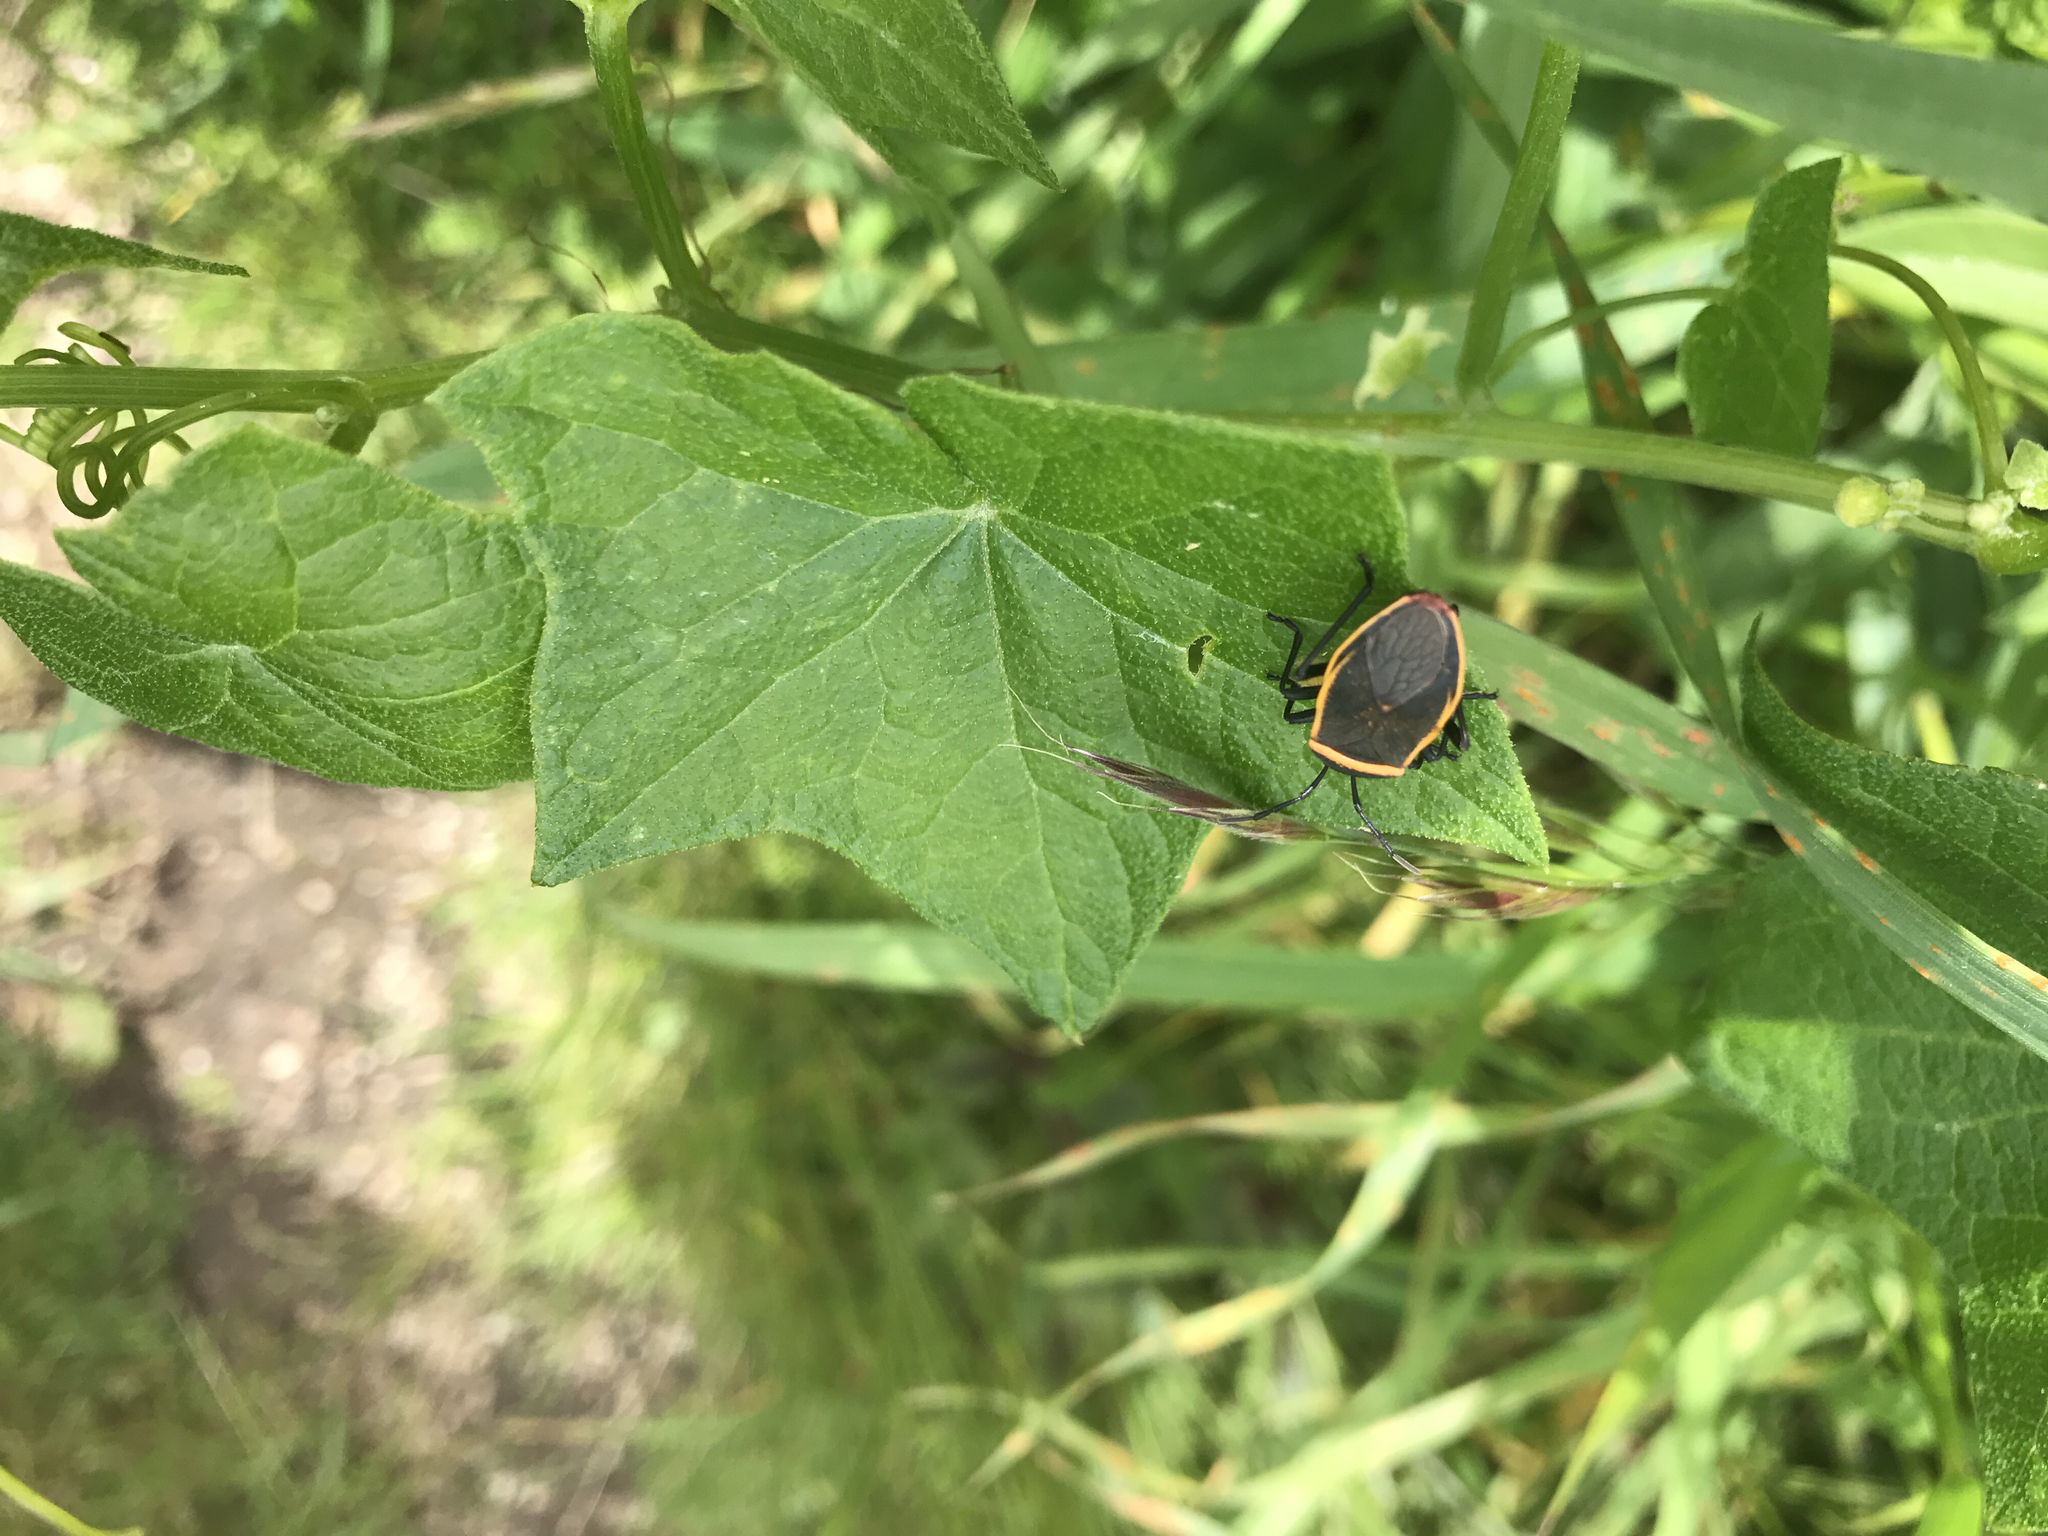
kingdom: Animalia
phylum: Arthropoda
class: Insecta
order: Hemiptera
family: Largidae
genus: Largus
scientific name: Largus californicus
